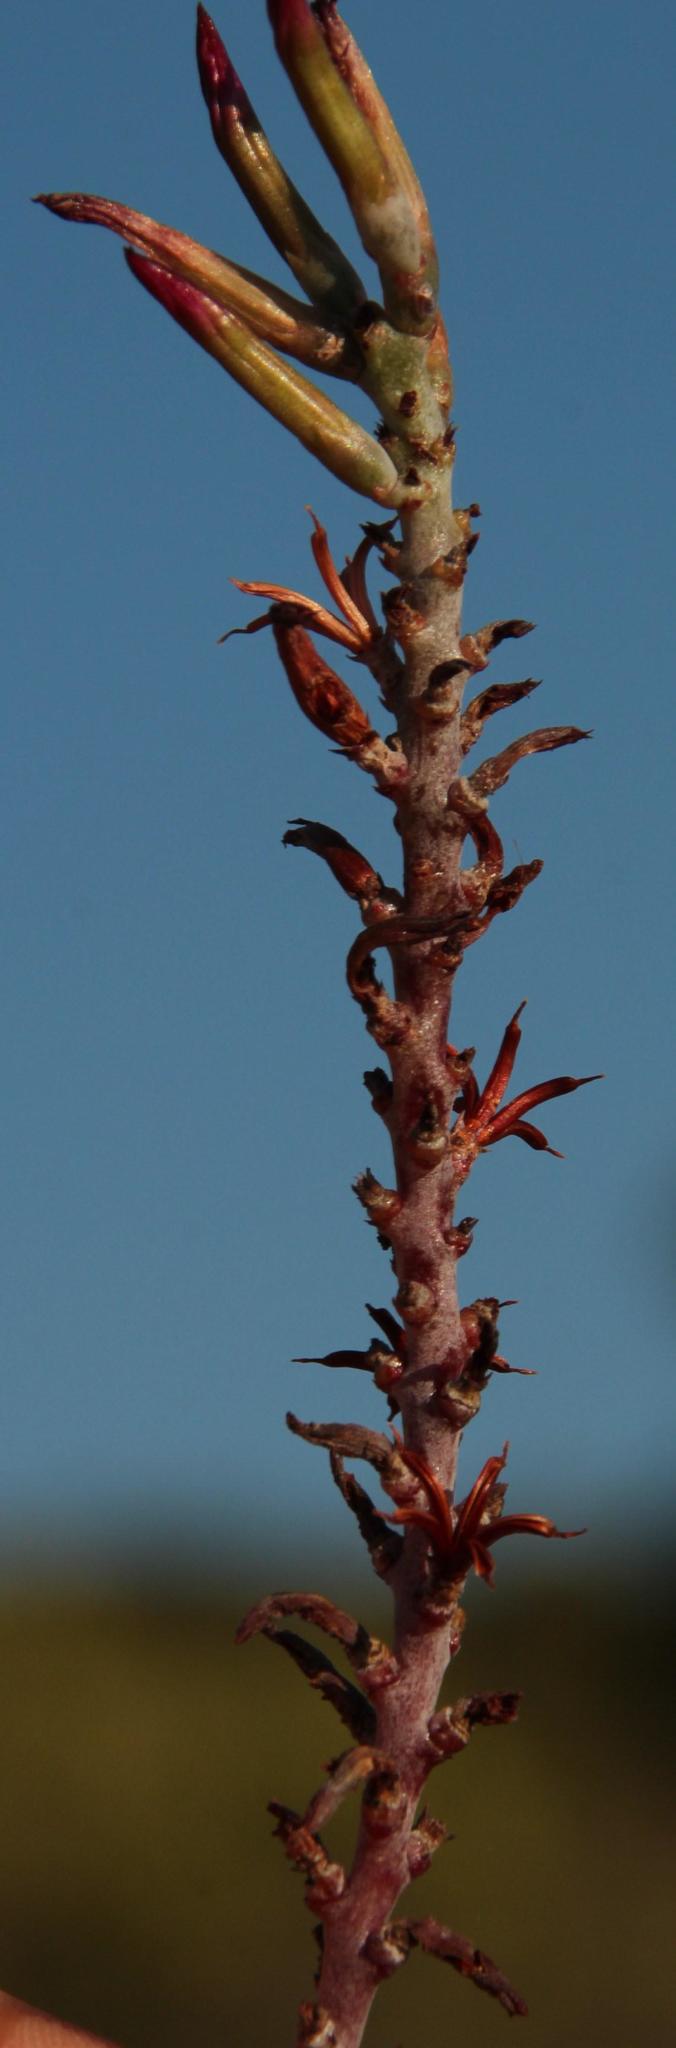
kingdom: Plantae
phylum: Tracheophyta
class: Magnoliopsida
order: Saxifragales
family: Crassulaceae
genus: Adromischus
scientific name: Adromischus triflorus
